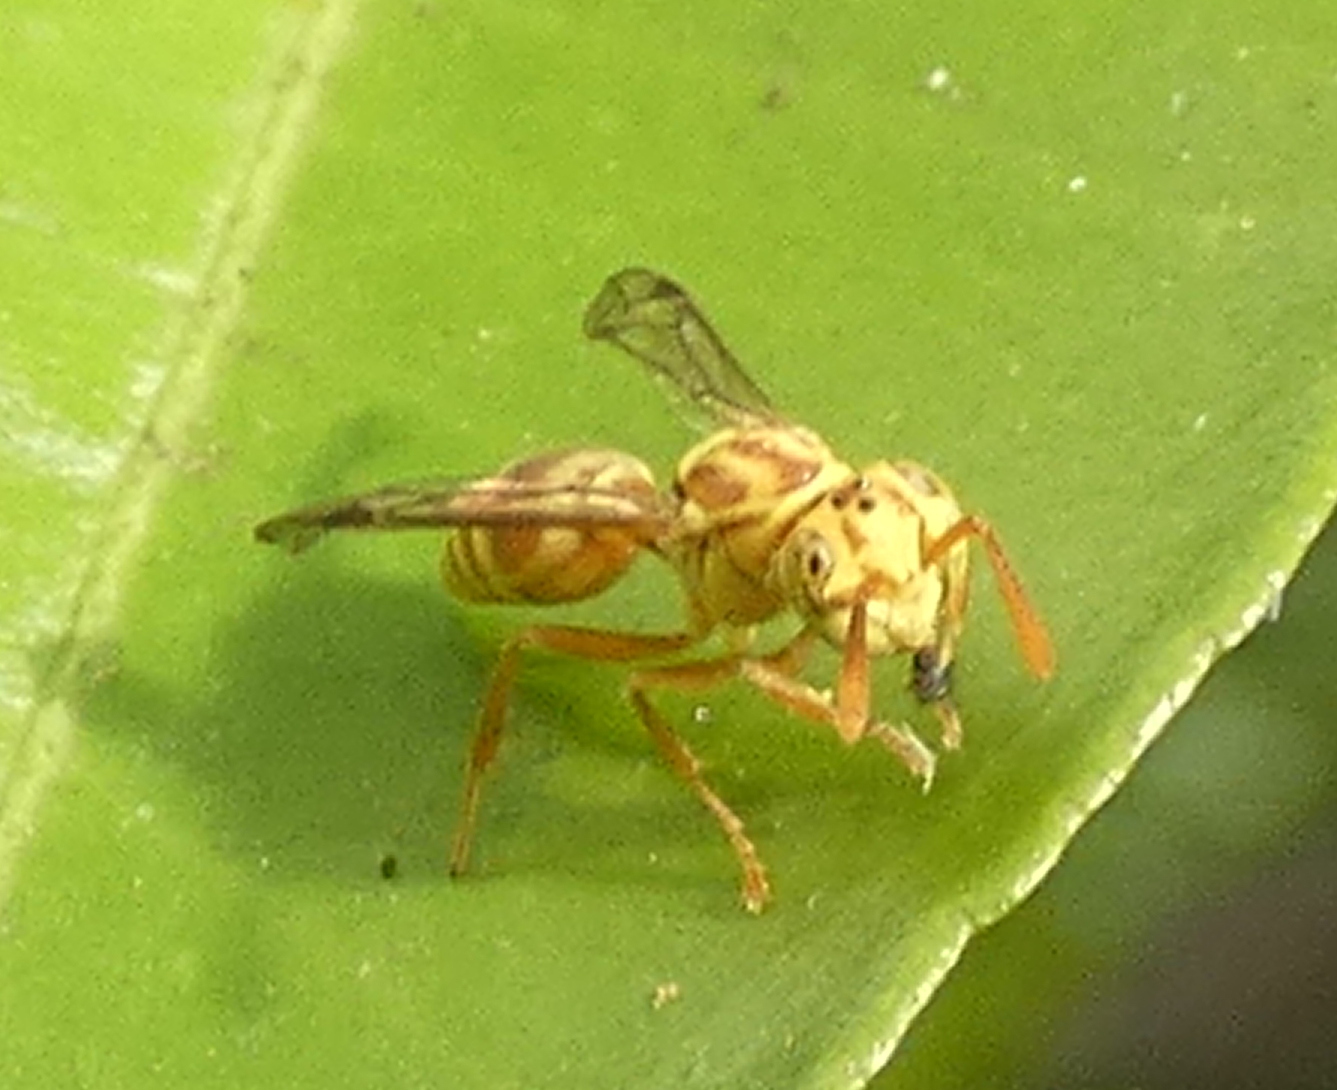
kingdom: Animalia
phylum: Arthropoda
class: Insecta
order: Hymenoptera
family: Vespidae
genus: Protopolybia
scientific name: Protopolybia potiguara
